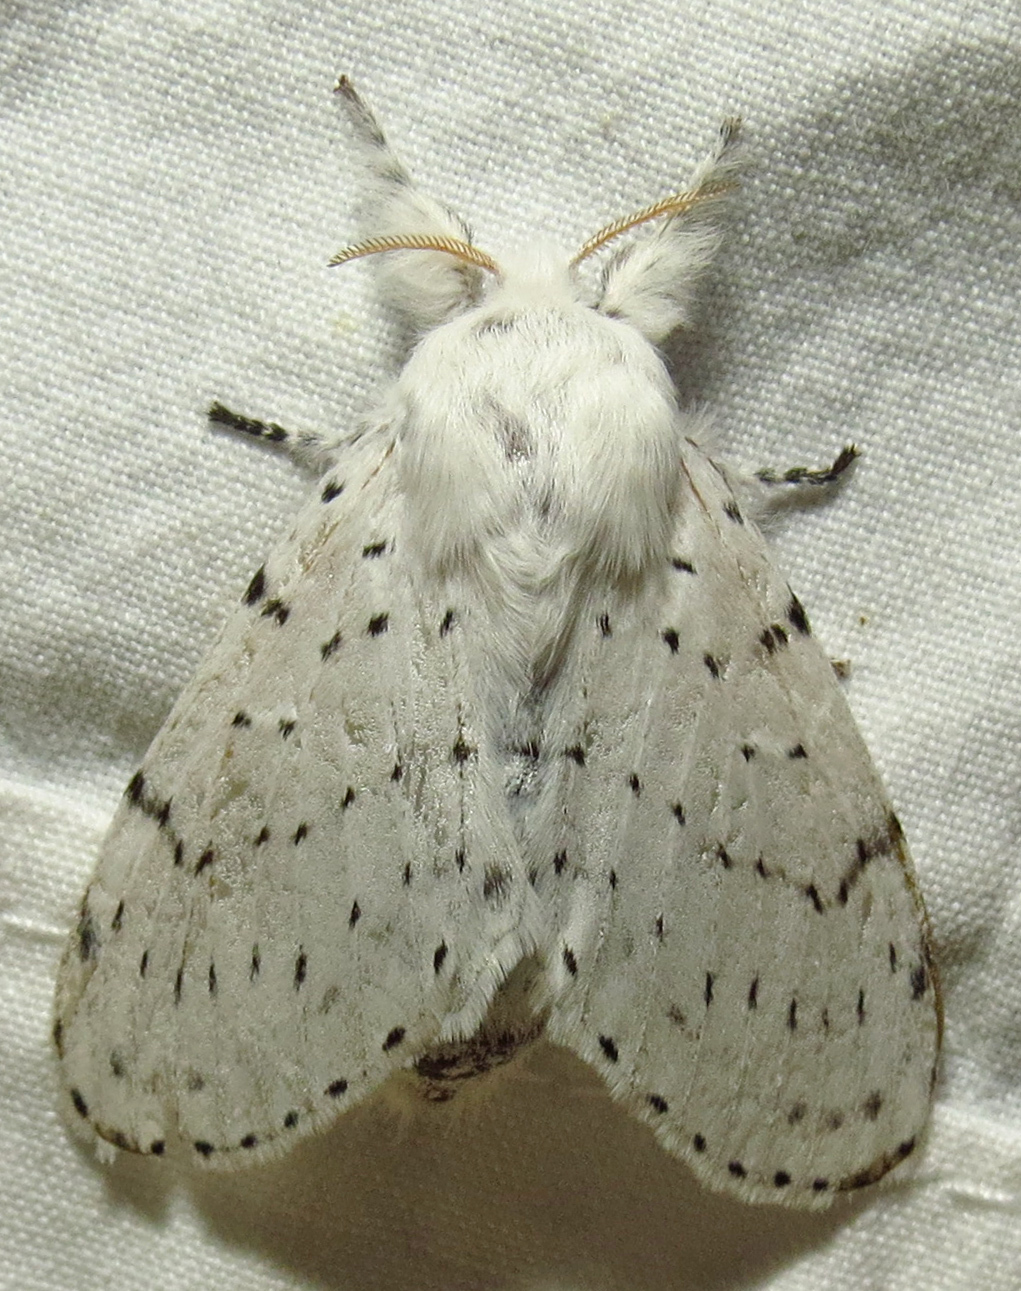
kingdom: Animalia
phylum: Arthropoda
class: Insecta
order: Lepidoptera
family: Lasiocampidae
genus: Artace
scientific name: Artace cribrarius
